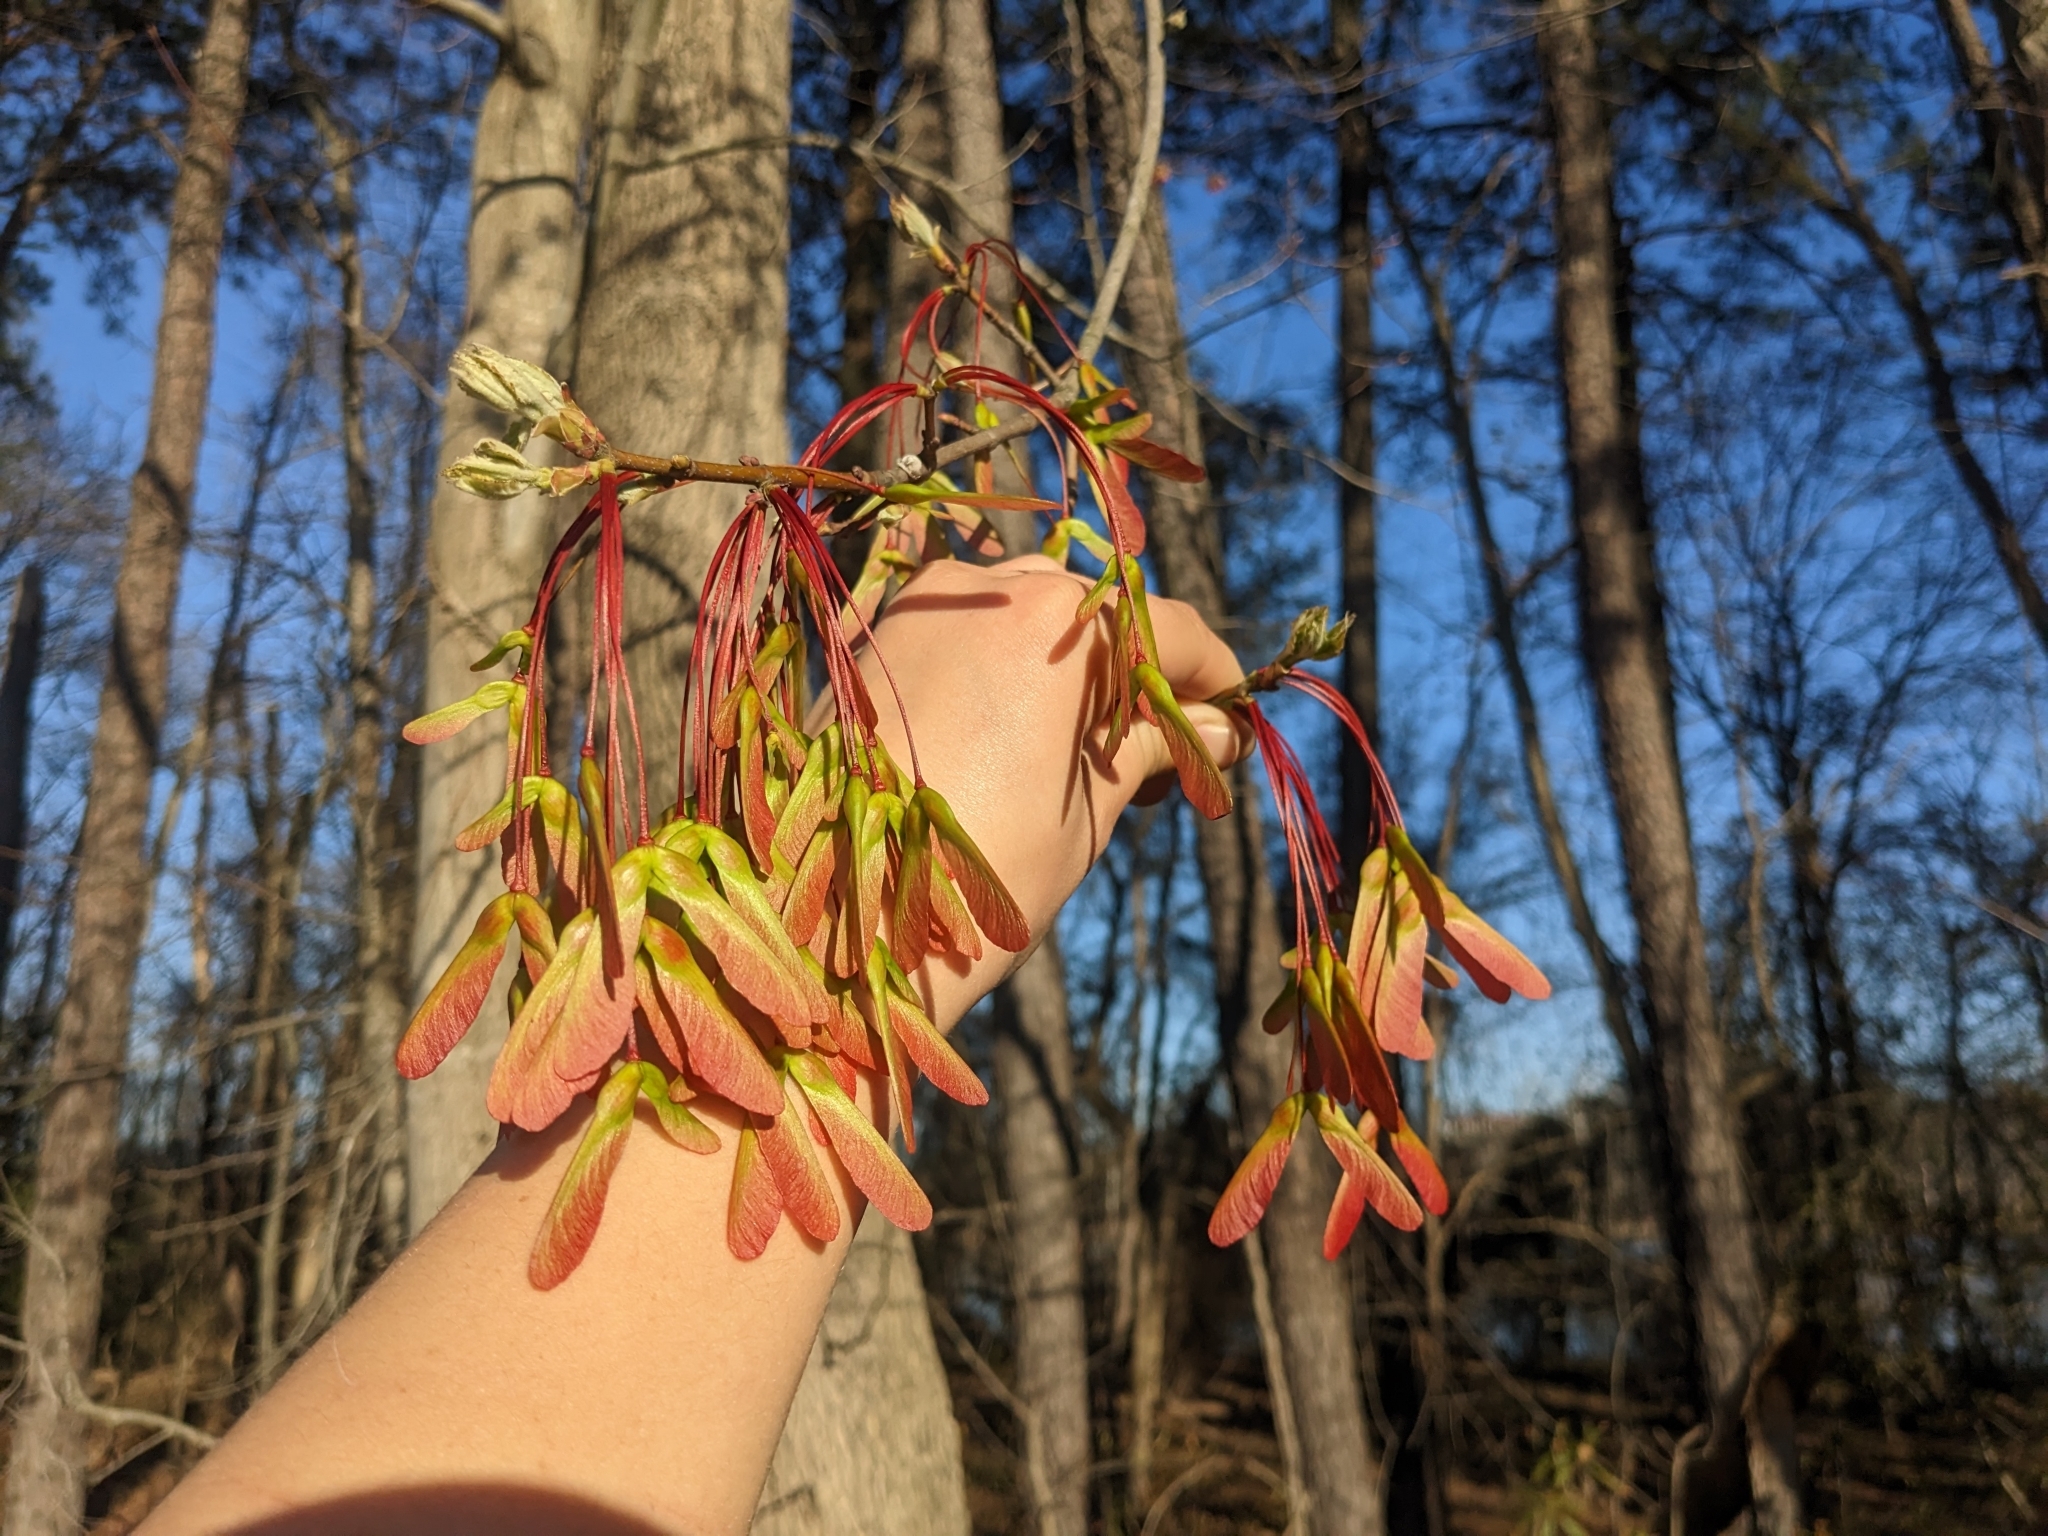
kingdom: Plantae
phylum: Tracheophyta
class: Magnoliopsida
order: Sapindales
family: Sapindaceae
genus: Acer
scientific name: Acer rubrum
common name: Red maple
